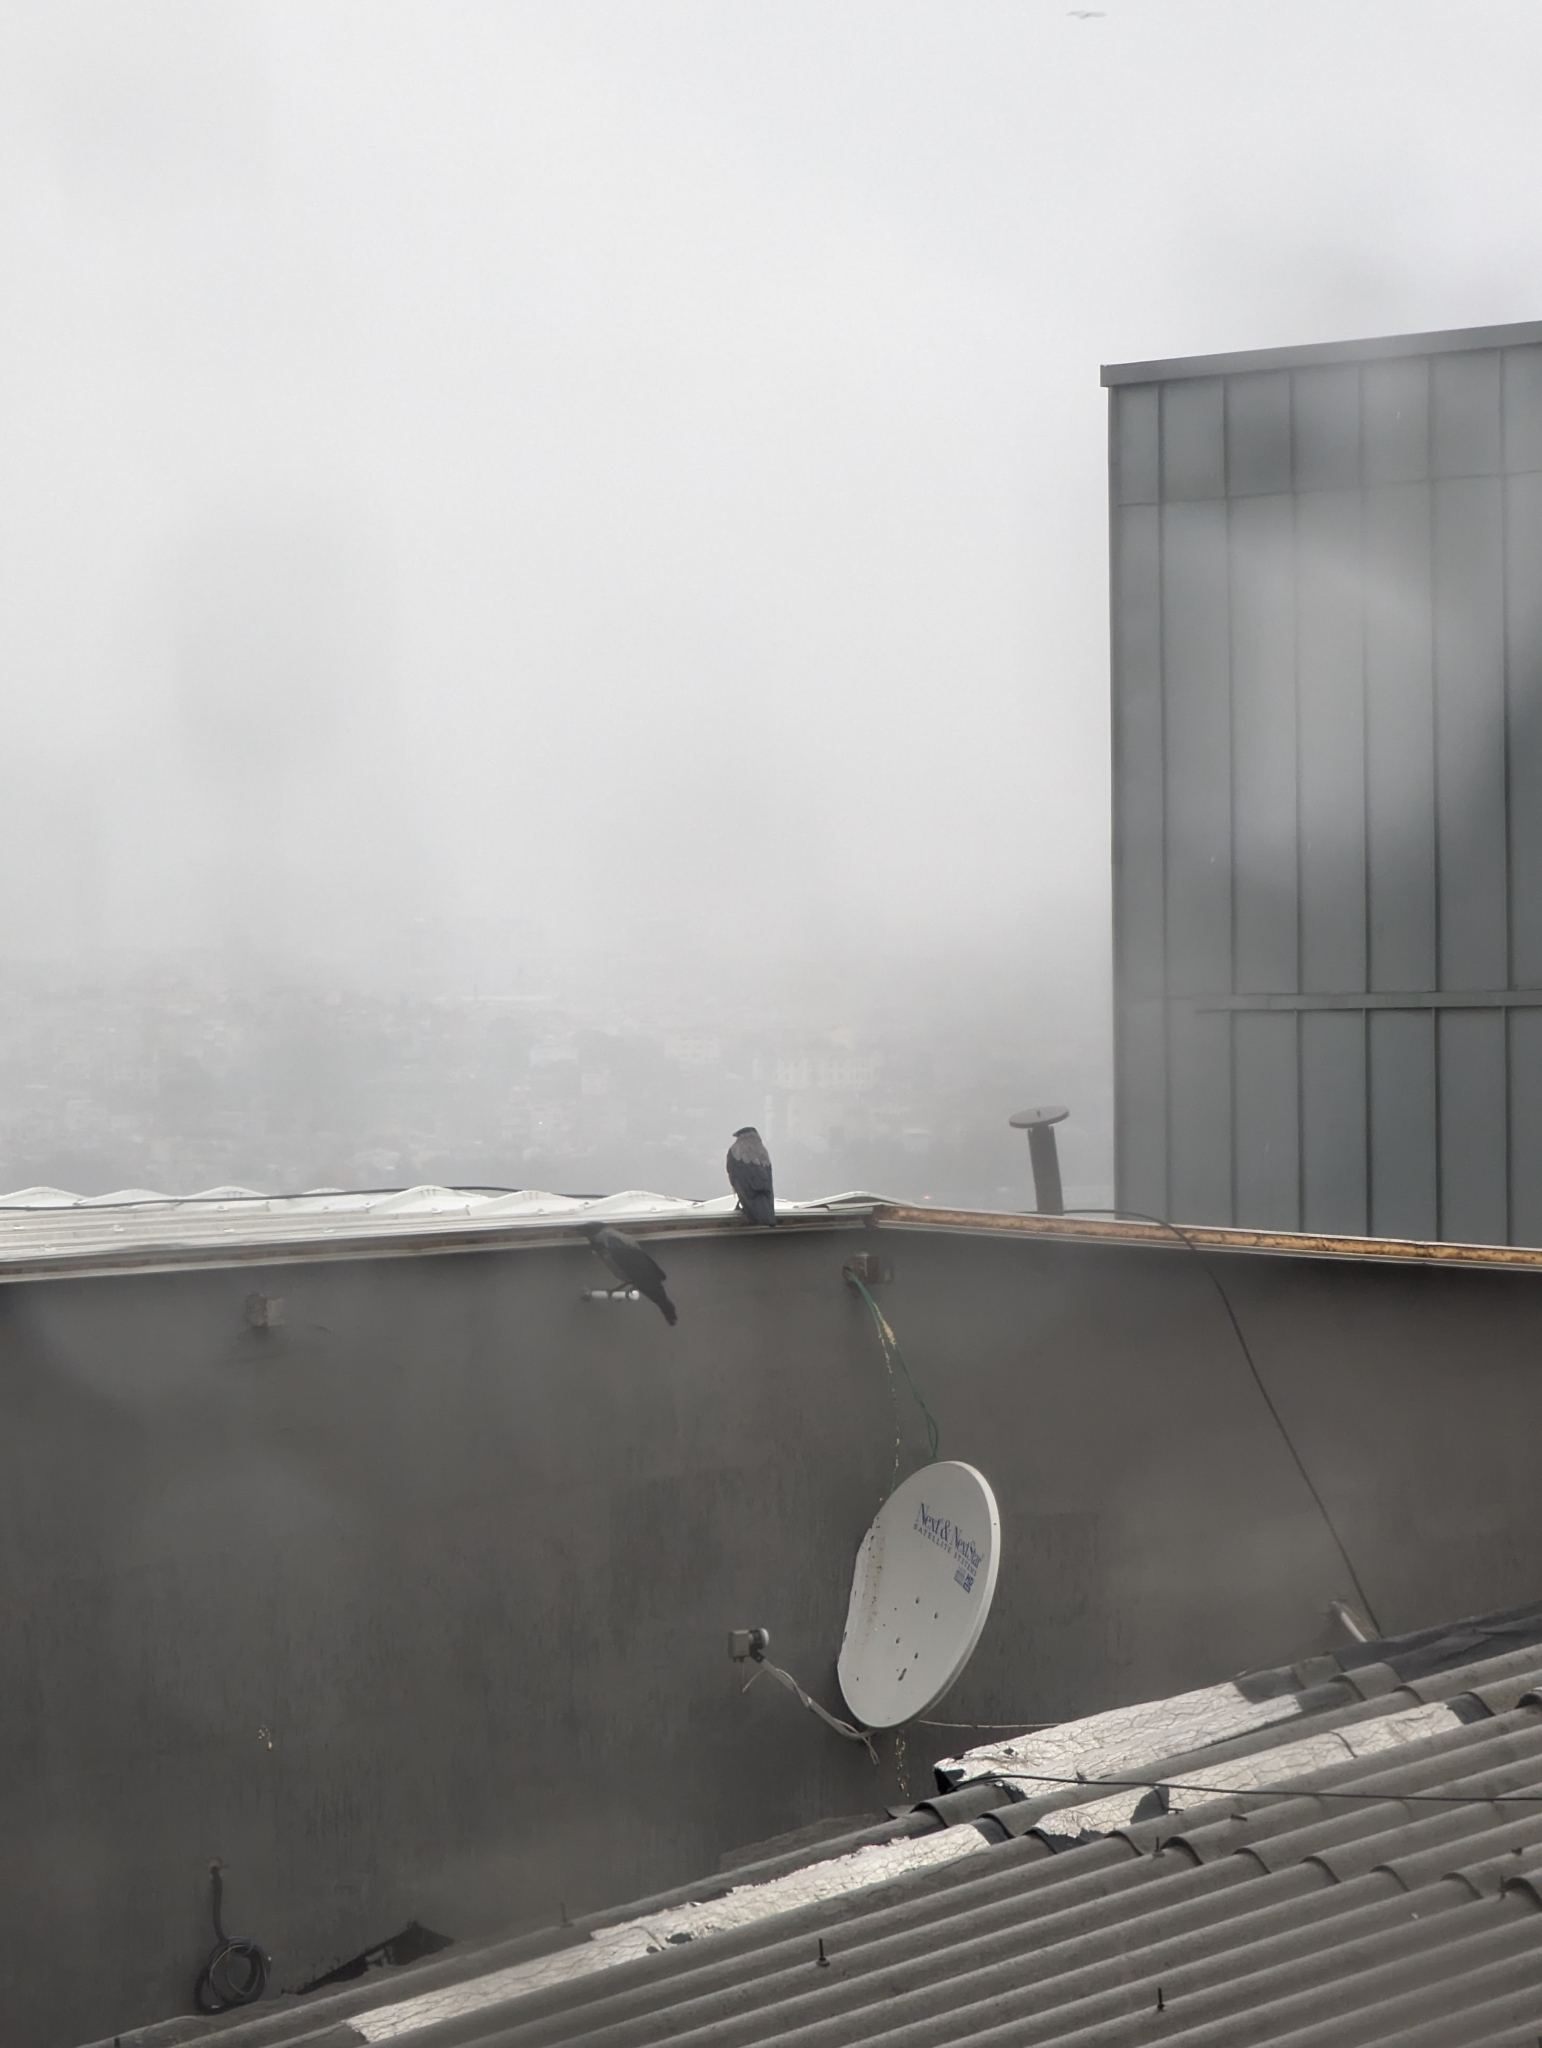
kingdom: Animalia
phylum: Chordata
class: Aves
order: Passeriformes
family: Corvidae
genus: Corvus
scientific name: Corvus cornix
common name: Hooded crow
